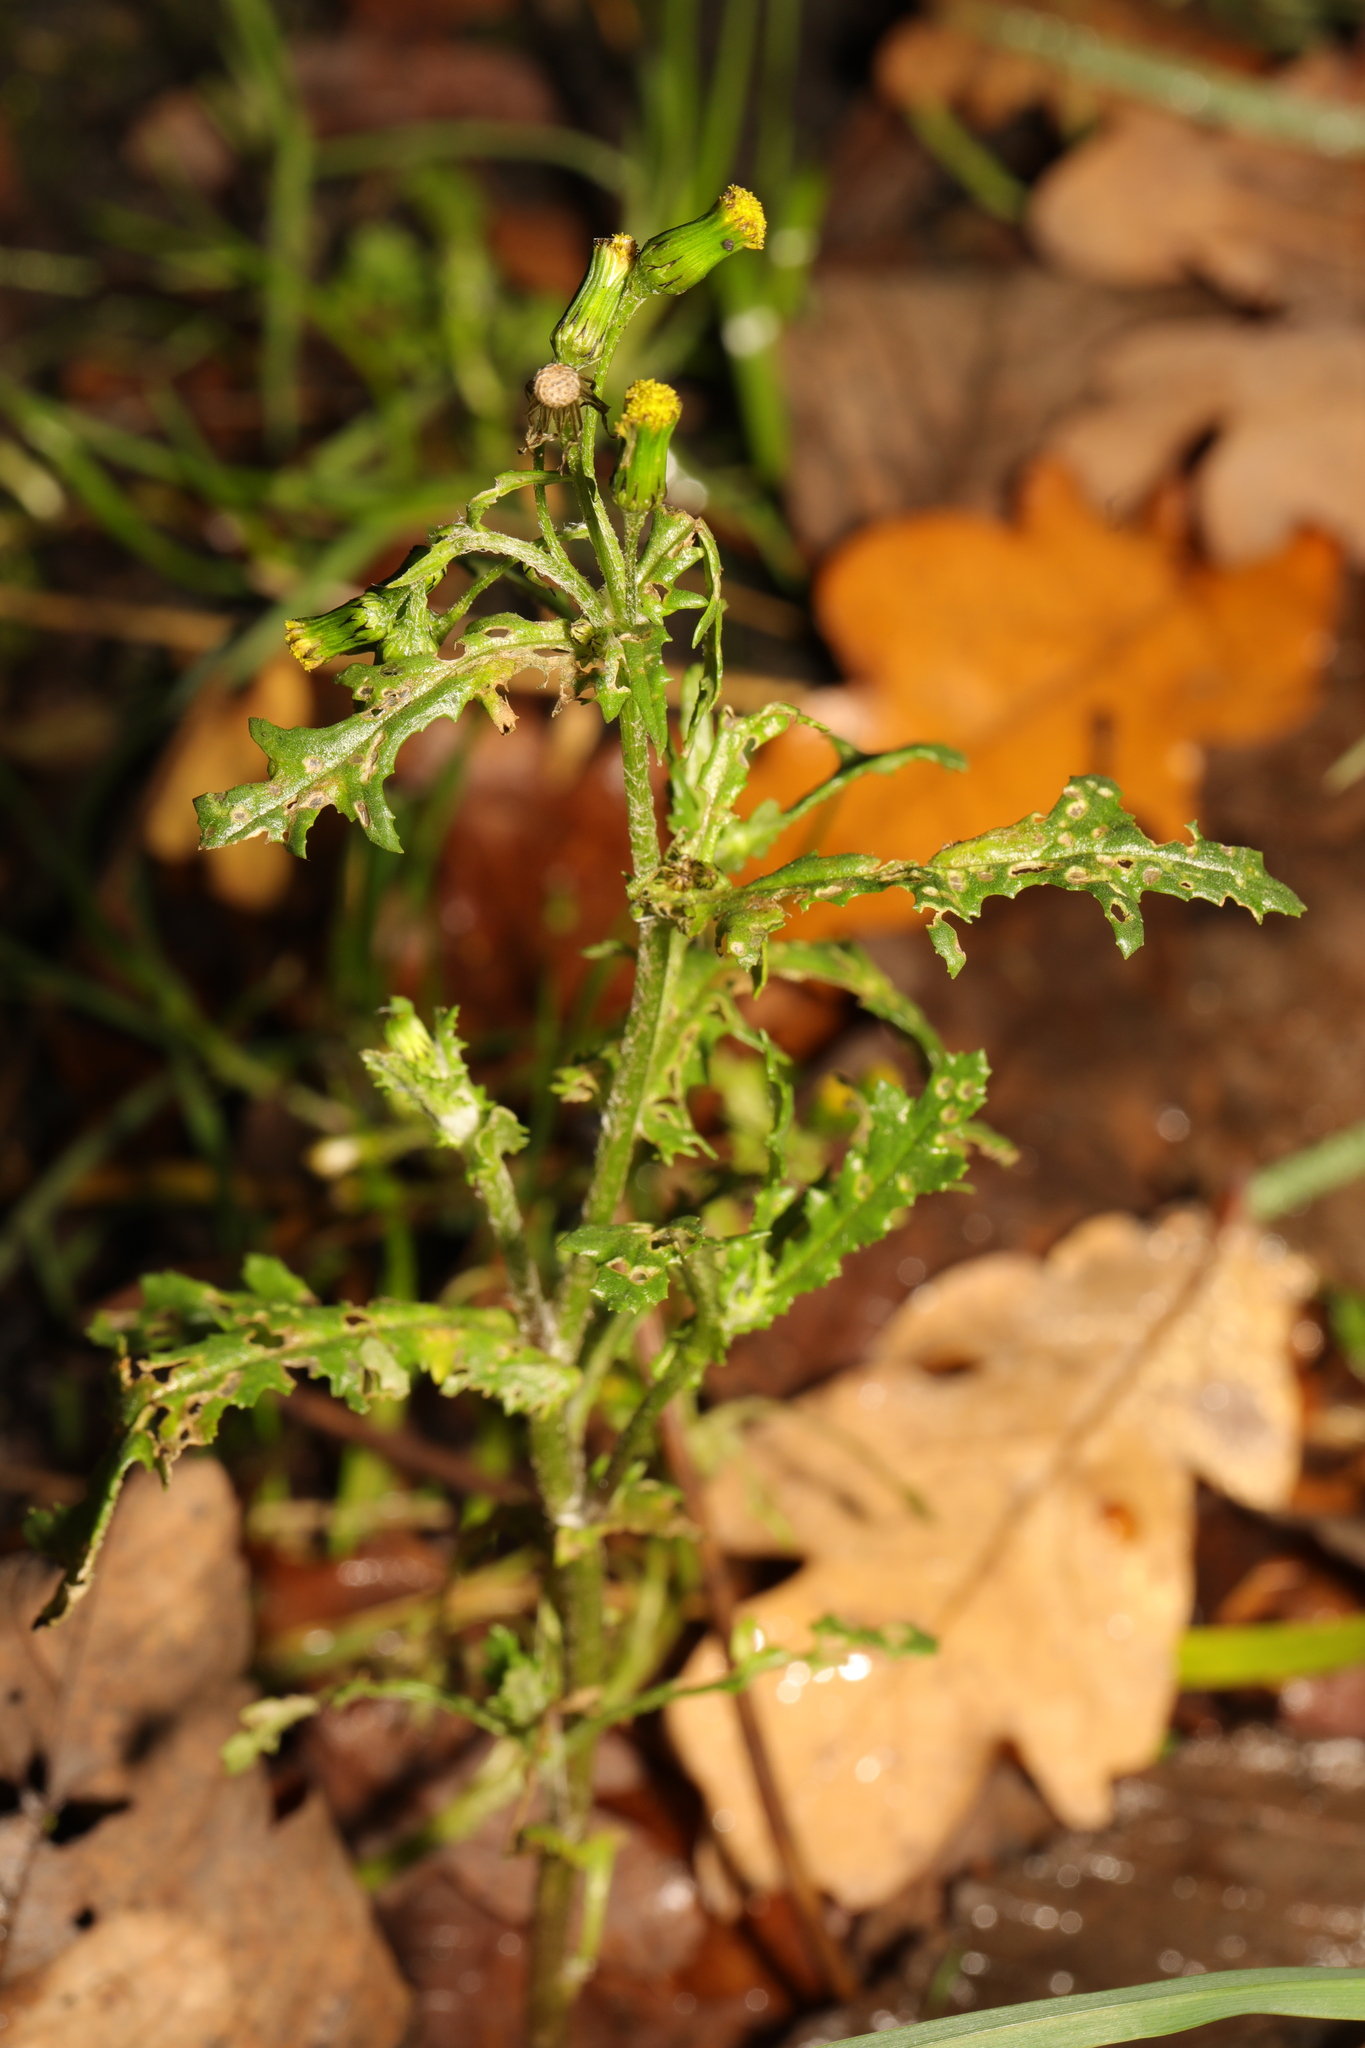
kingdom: Plantae
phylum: Tracheophyta
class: Magnoliopsida
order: Asterales
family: Asteraceae
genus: Senecio
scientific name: Senecio vulgaris
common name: Old-man-in-the-spring
